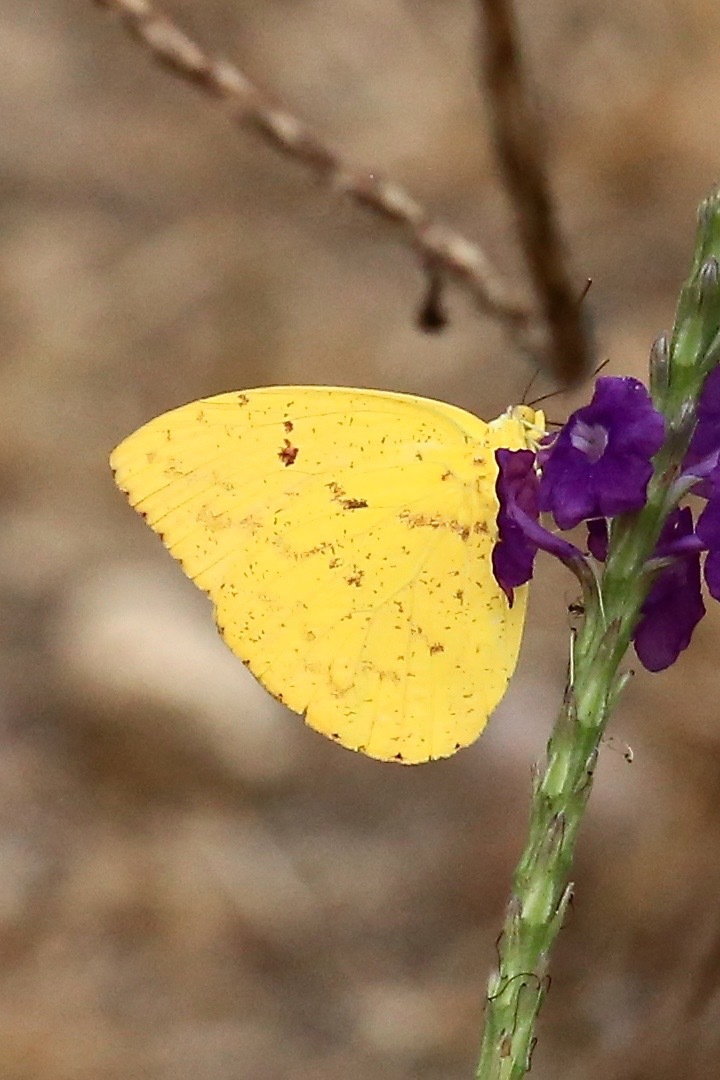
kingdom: Animalia
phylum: Arthropoda
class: Insecta
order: Lepidoptera
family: Pieridae
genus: Phoebis
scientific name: Phoebis argante
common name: Apricot sulphur
